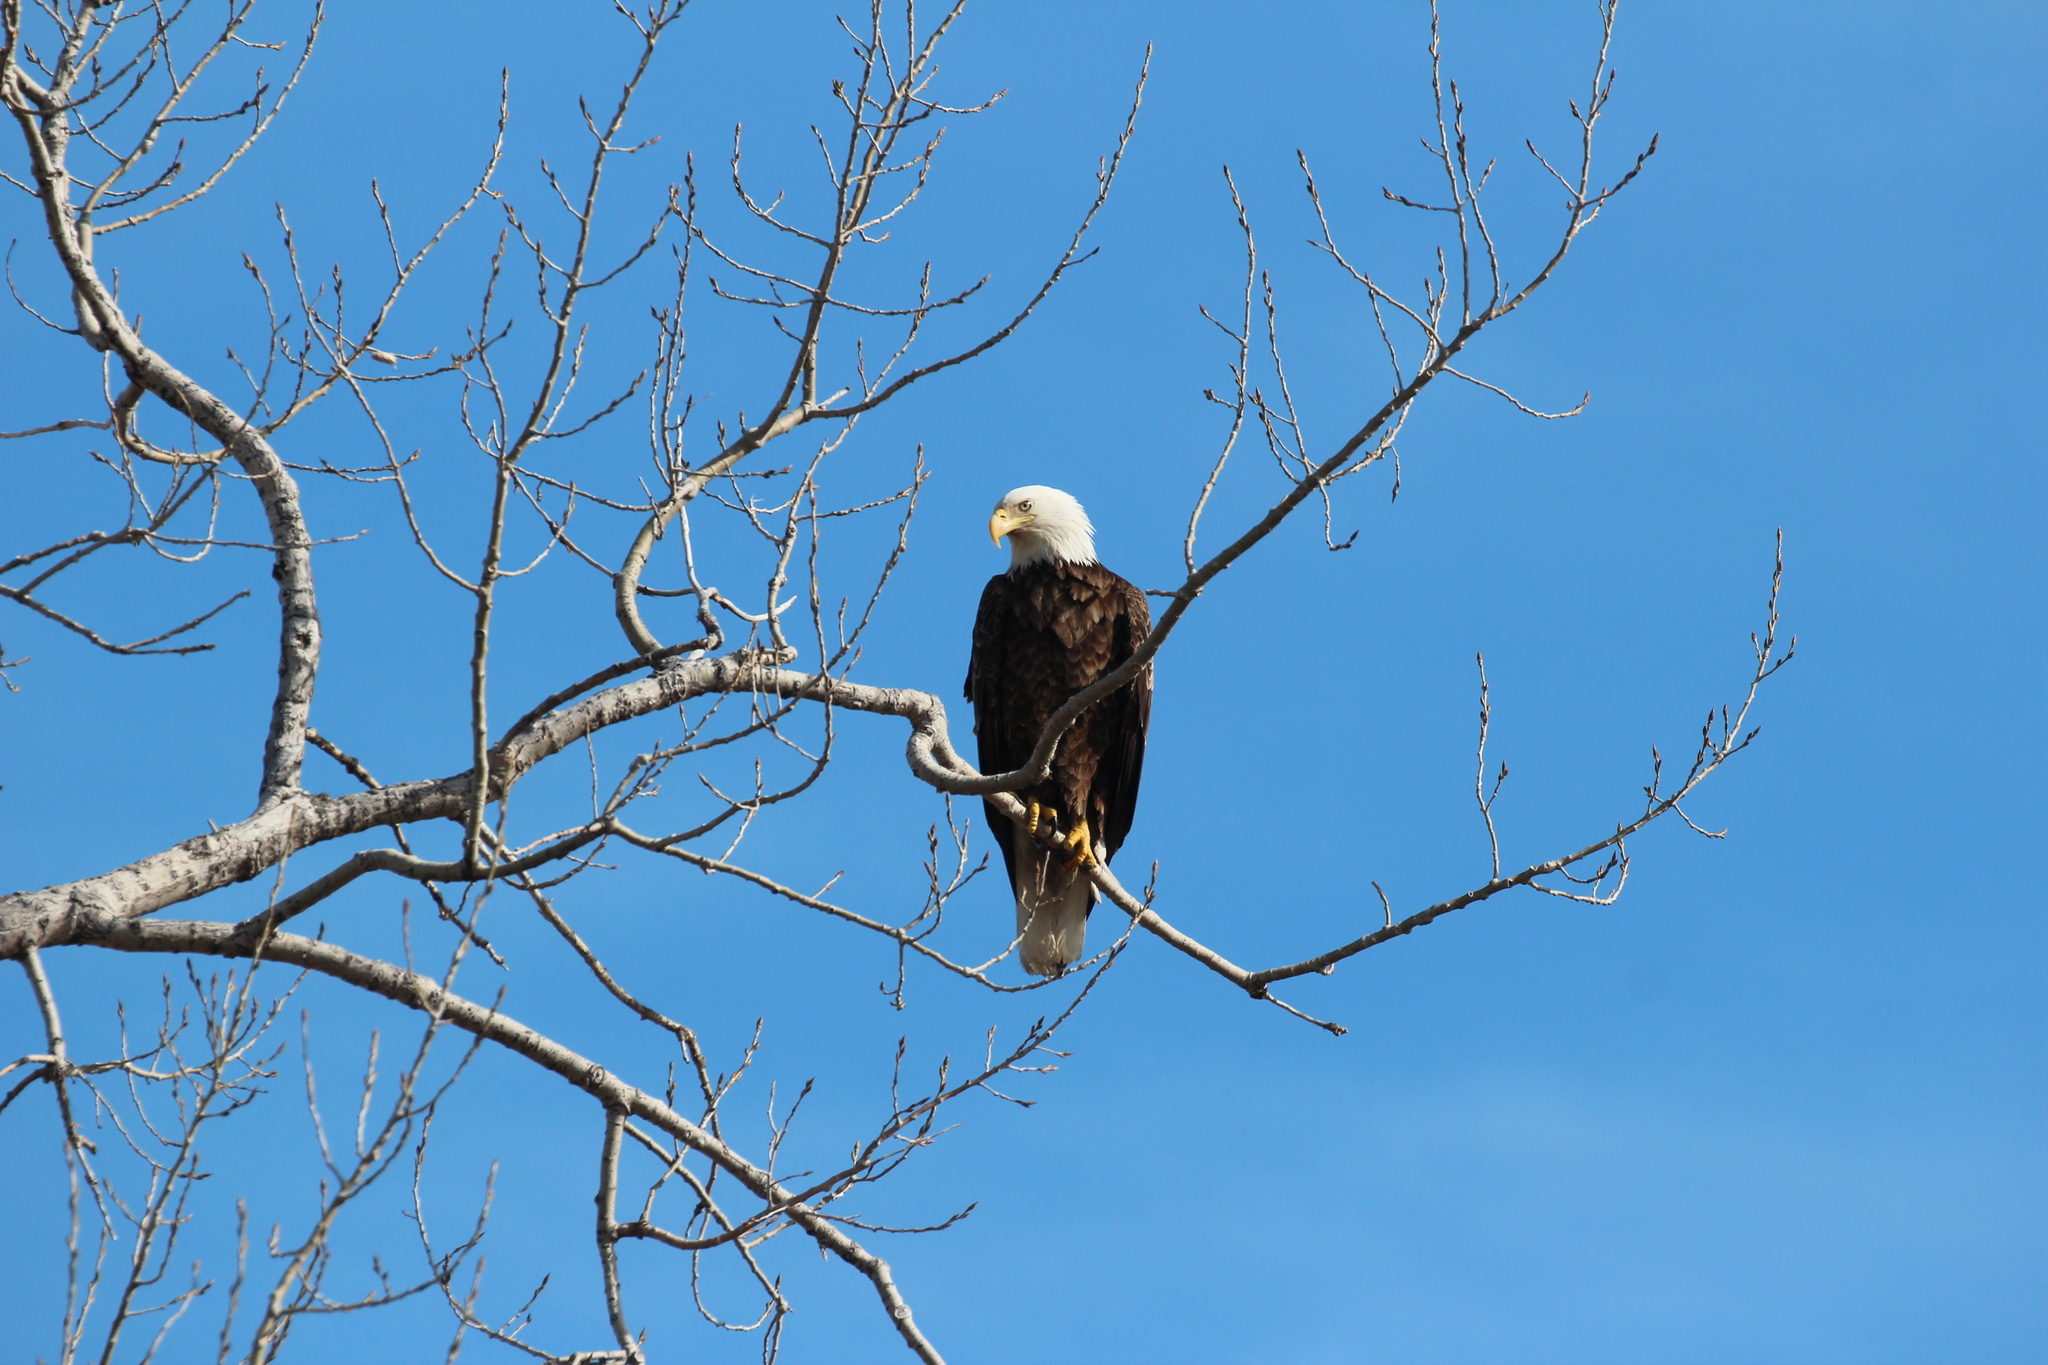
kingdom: Animalia
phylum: Chordata
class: Aves
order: Accipitriformes
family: Accipitridae
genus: Haliaeetus
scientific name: Haliaeetus leucocephalus
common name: Bald eagle
